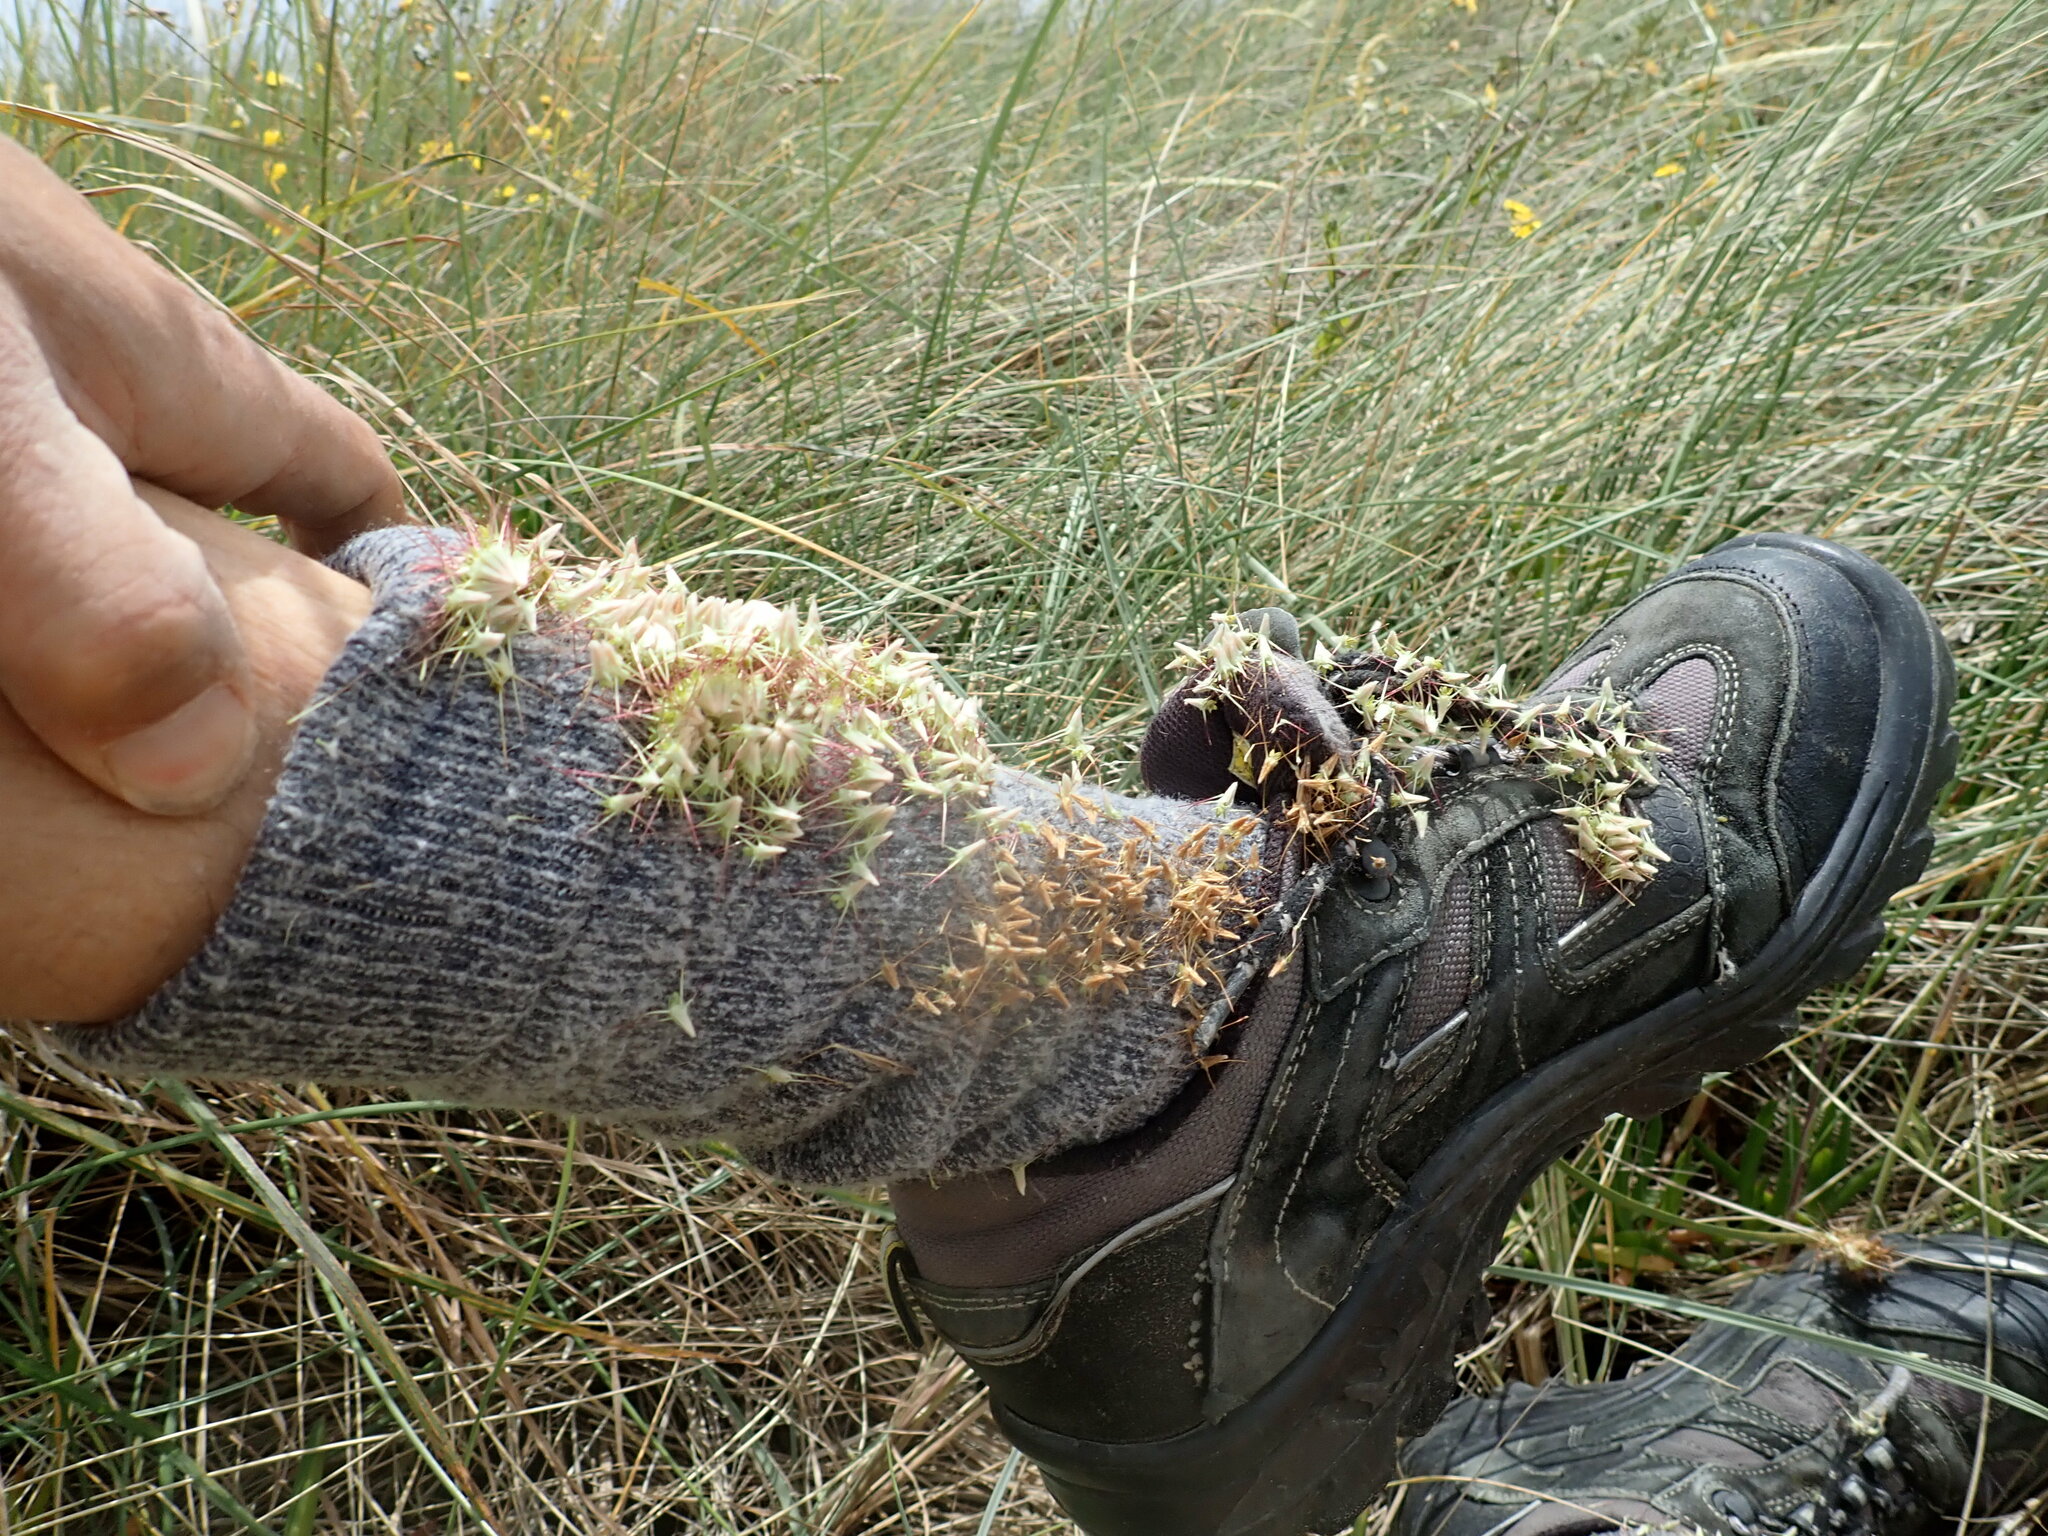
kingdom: Plantae
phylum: Tracheophyta
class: Magnoliopsida
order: Rosales
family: Rosaceae
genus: Acaena
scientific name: Acaena novae-zelandiae
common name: Pirri-pirri-bur
